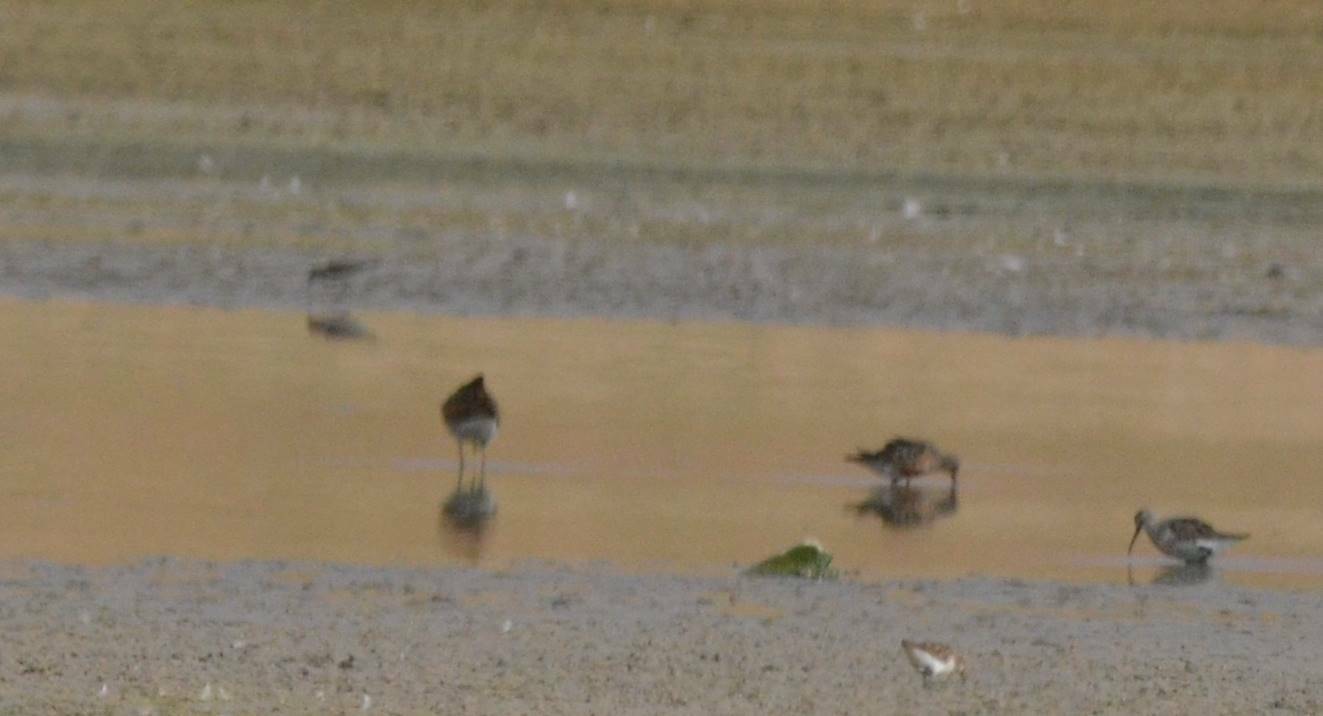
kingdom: Animalia
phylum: Chordata
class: Aves
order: Charadriiformes
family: Scolopacidae
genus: Calidris
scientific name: Calidris ferruginea
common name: Curlew sandpiper
